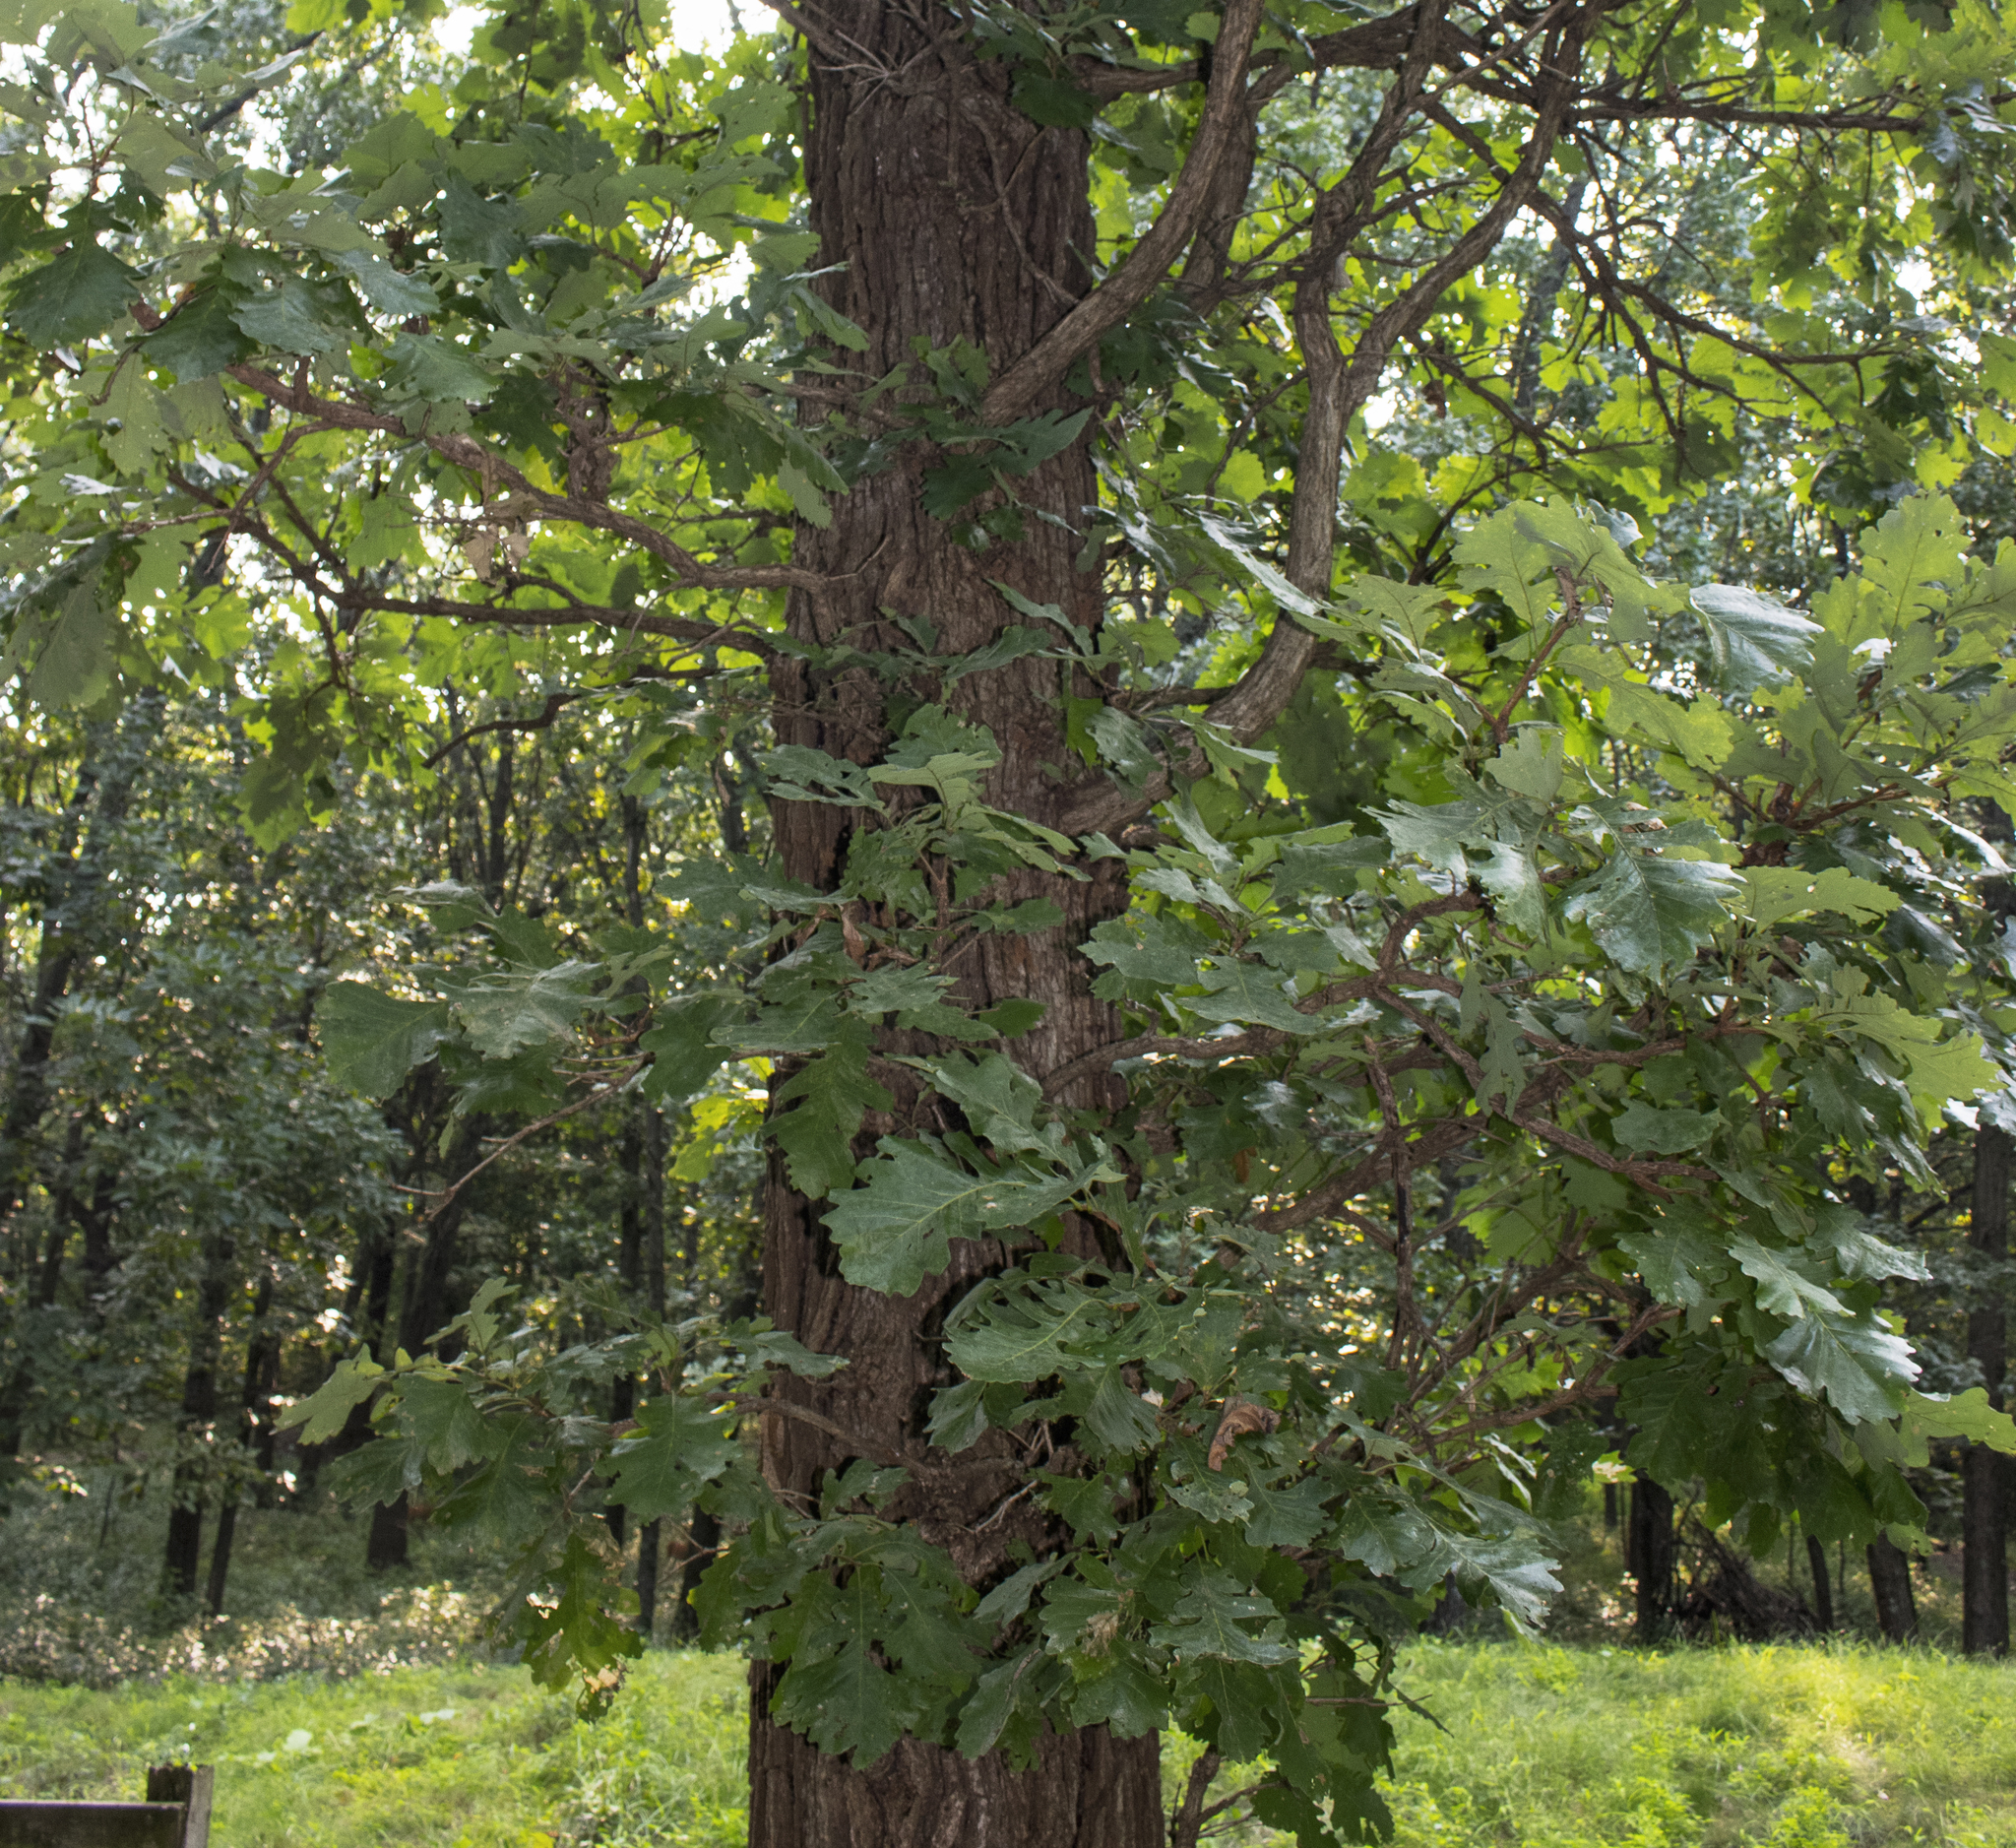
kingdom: Plantae
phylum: Tracheophyta
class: Magnoliopsida
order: Fagales
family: Fagaceae
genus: Quercus
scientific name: Quercus macrocarpa
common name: Bur oak
